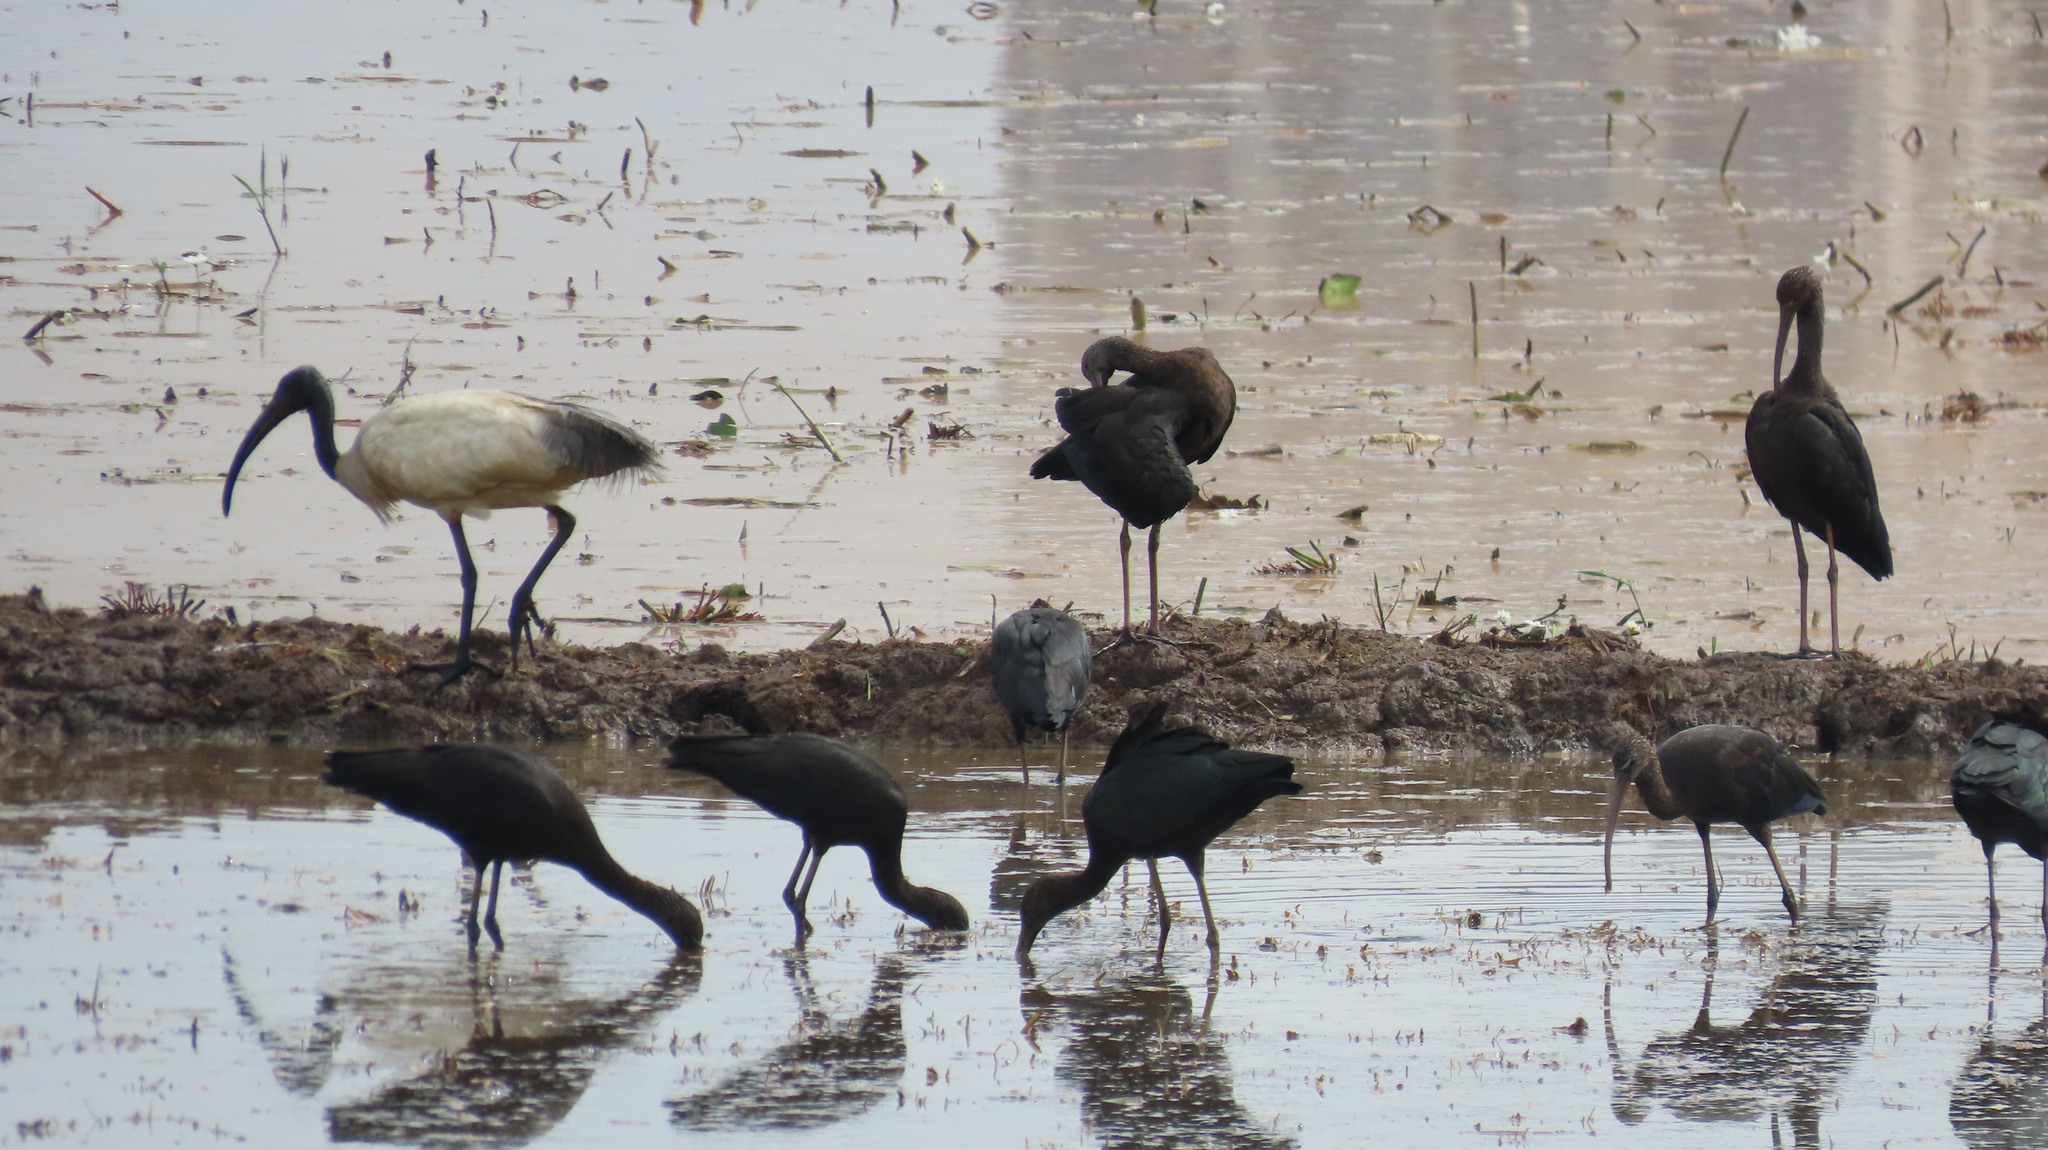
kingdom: Animalia
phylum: Chordata
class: Aves
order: Pelecaniformes
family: Threskiornithidae
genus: Plegadis
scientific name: Plegadis falcinellus
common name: Glossy ibis
